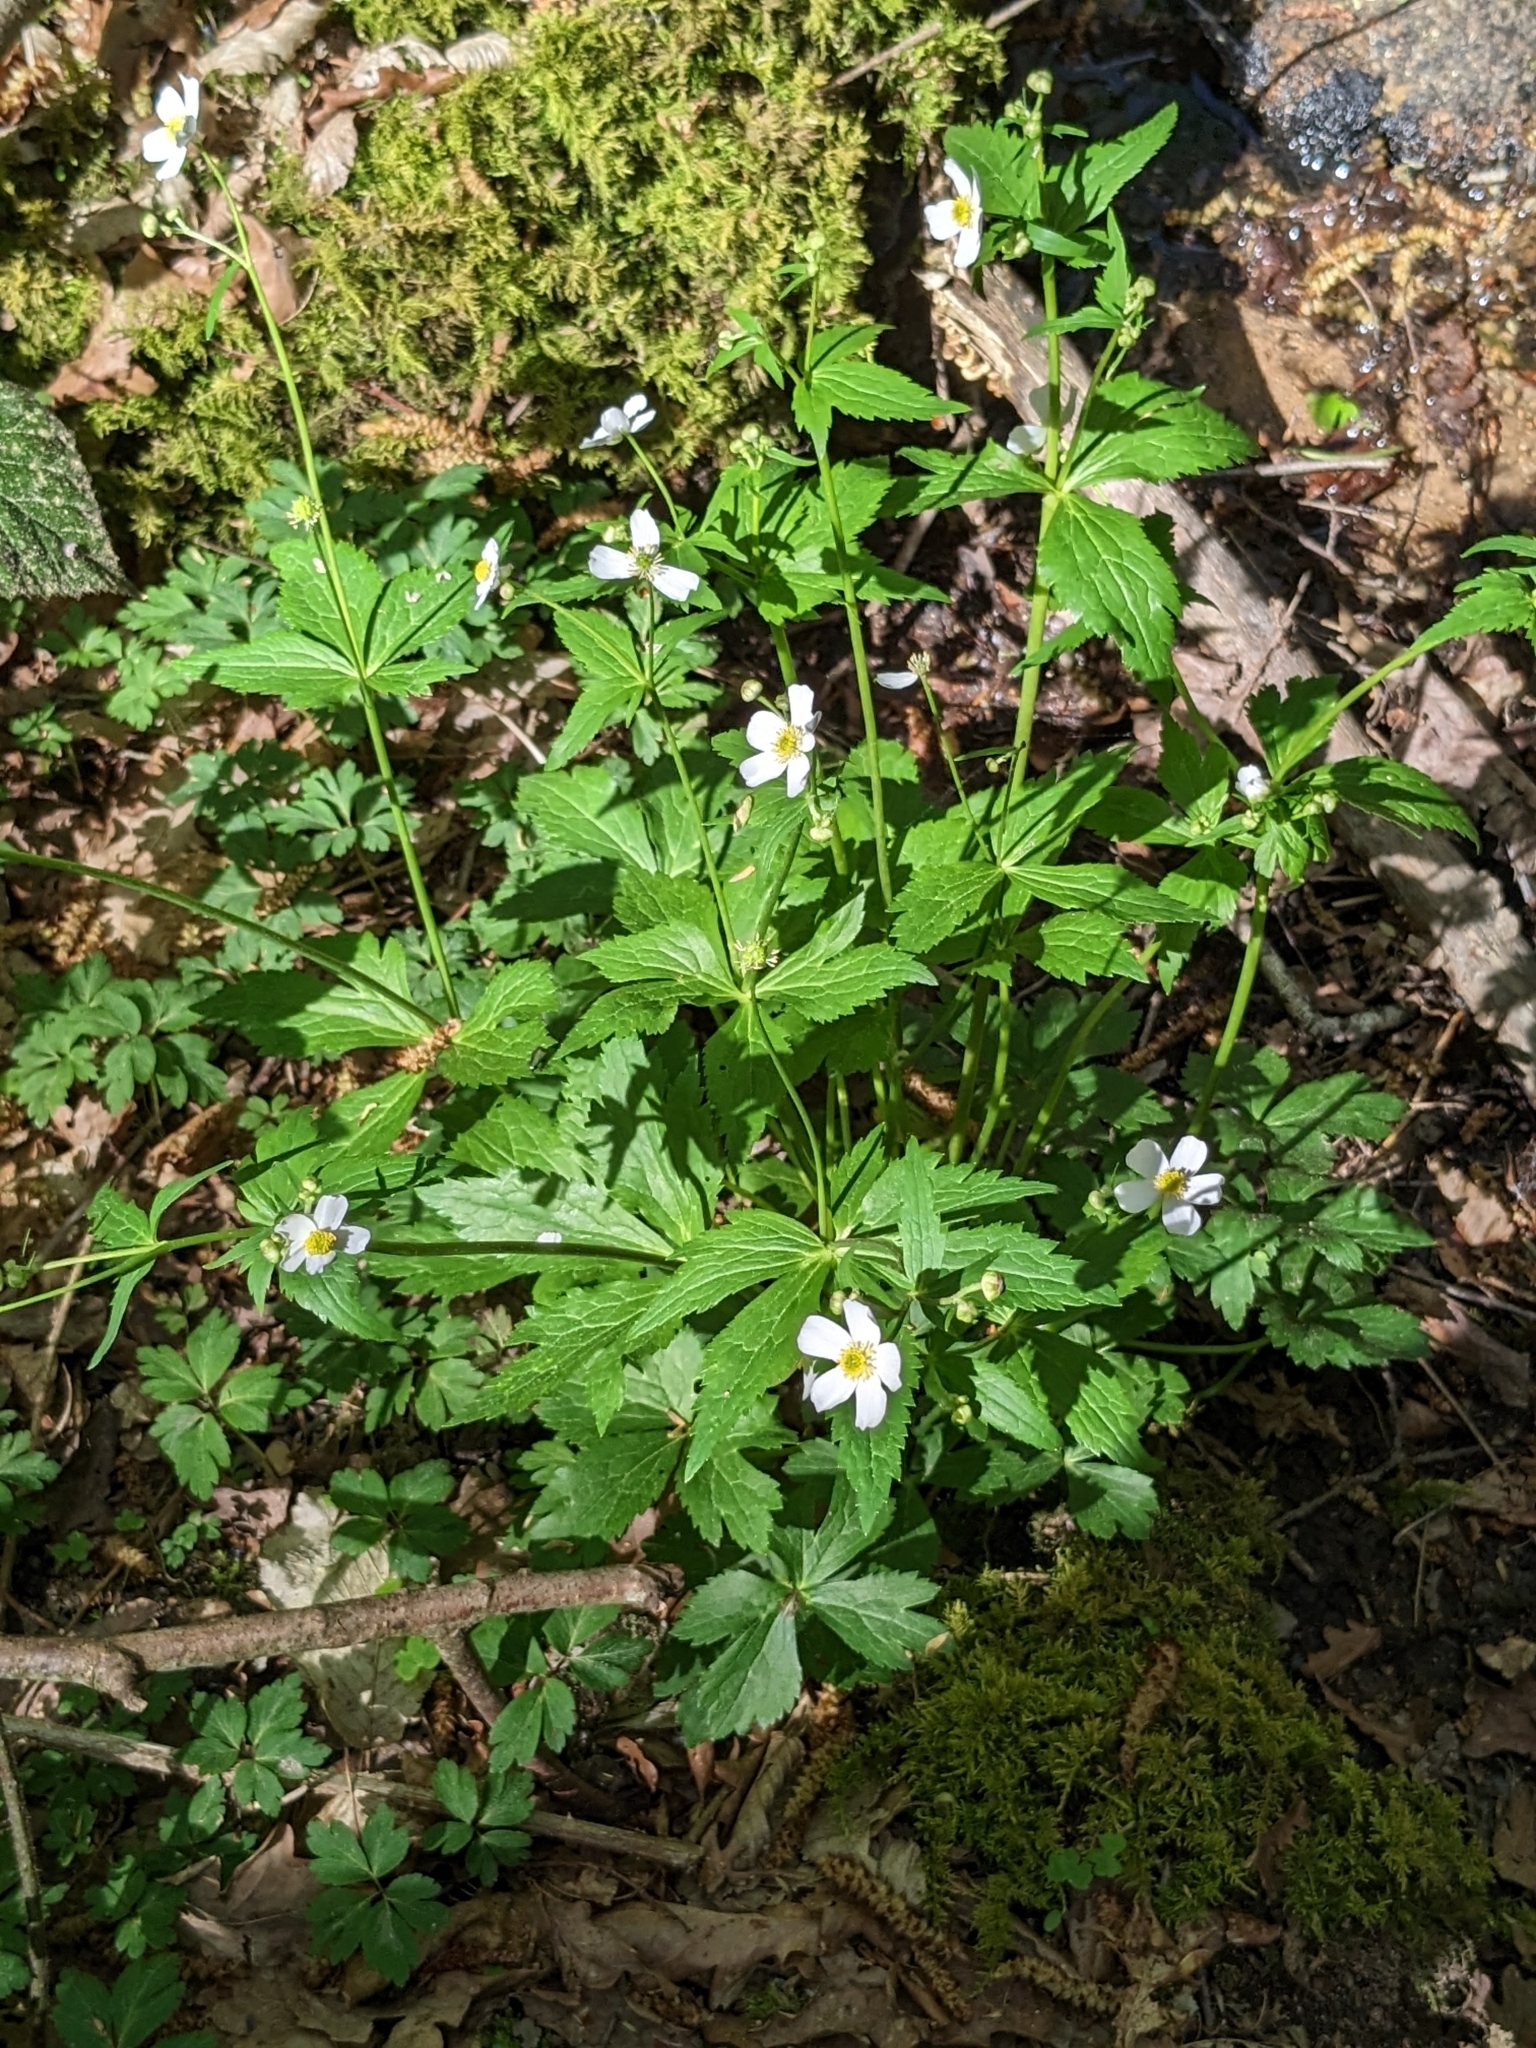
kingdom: Plantae
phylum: Tracheophyta
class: Magnoliopsida
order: Ranunculales
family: Ranunculaceae
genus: Ranunculus
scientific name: Ranunculus aconitifolius
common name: Aconite-leaved buttercup
